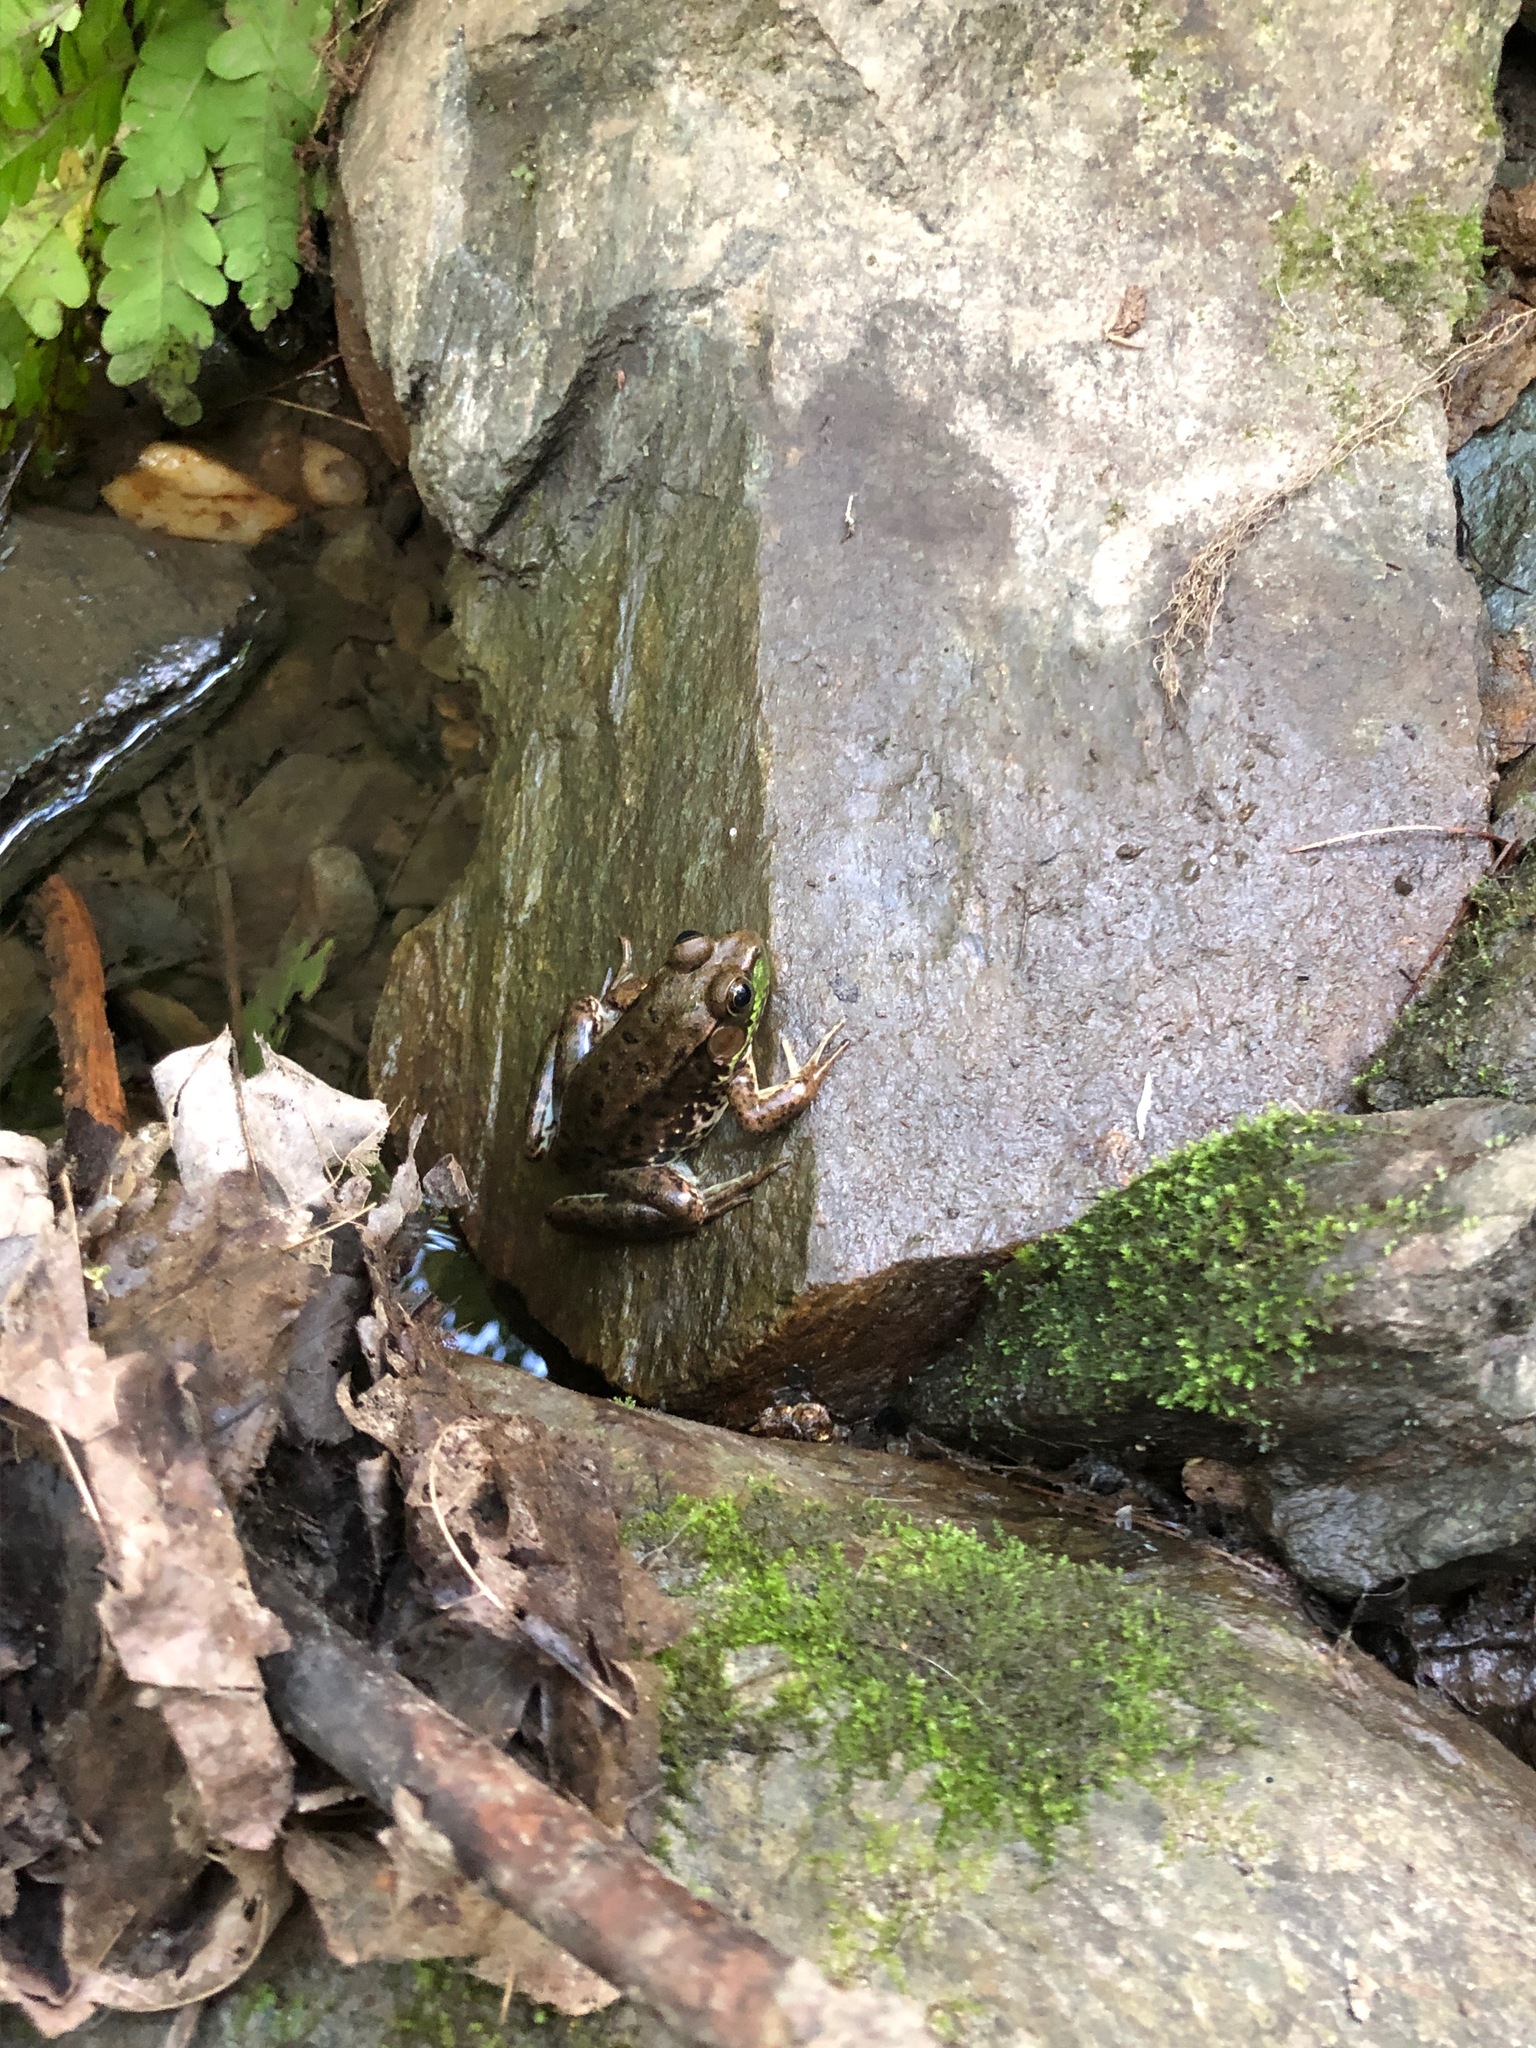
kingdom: Animalia
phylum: Chordata
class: Amphibia
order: Anura
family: Ranidae
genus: Lithobates
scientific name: Lithobates clamitans
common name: Green frog
